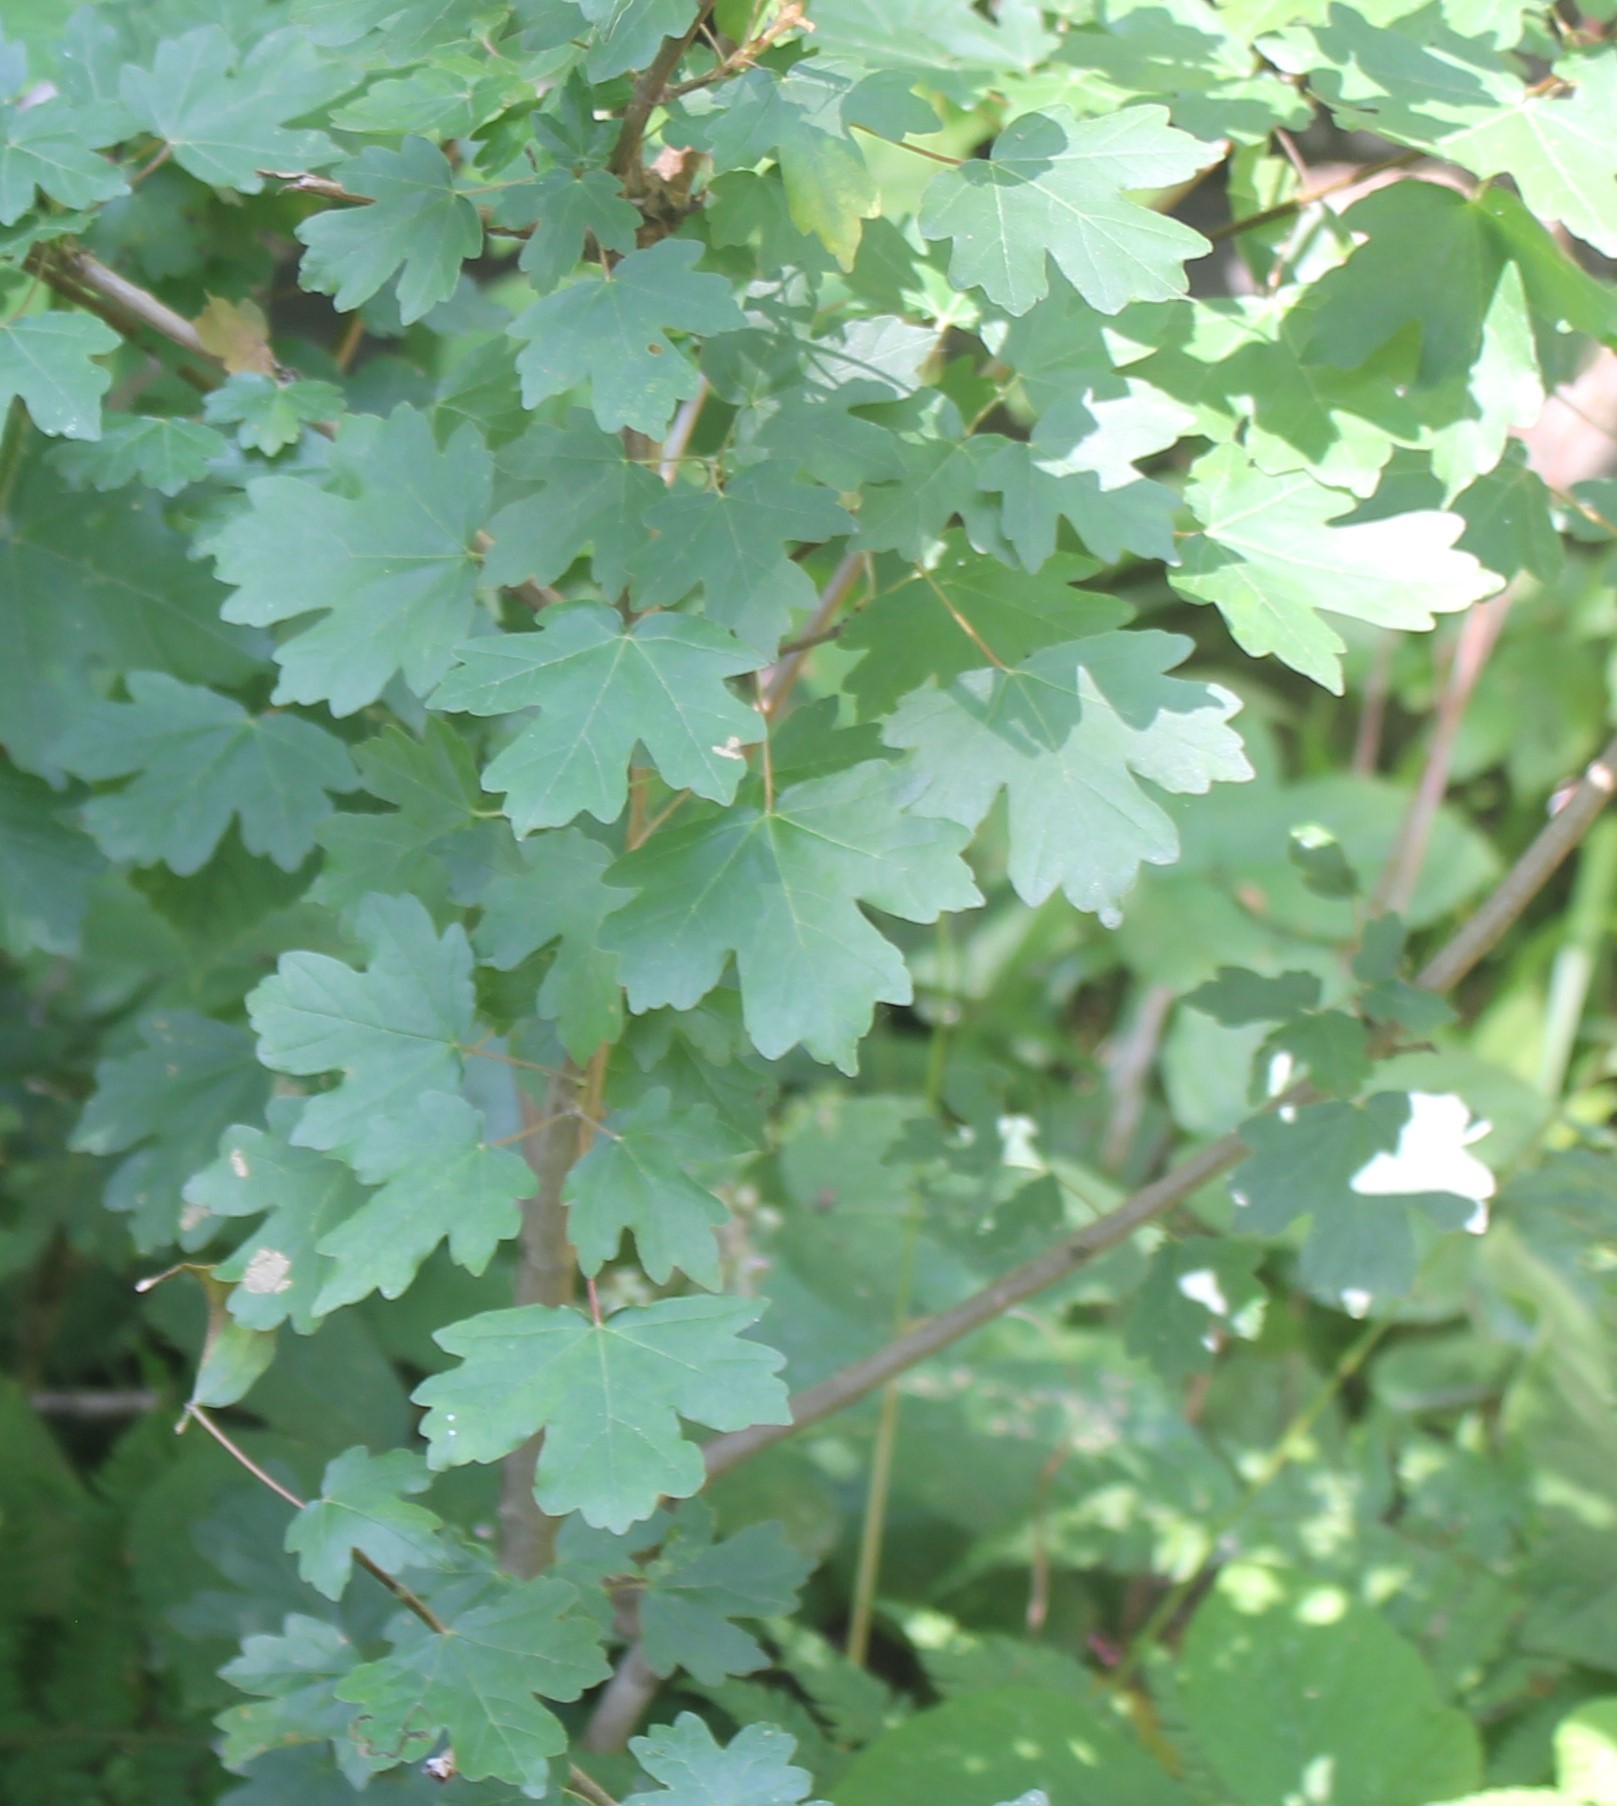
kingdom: Plantae
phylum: Tracheophyta
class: Magnoliopsida
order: Sapindales
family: Sapindaceae
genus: Acer
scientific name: Acer campestre
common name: Field maple
